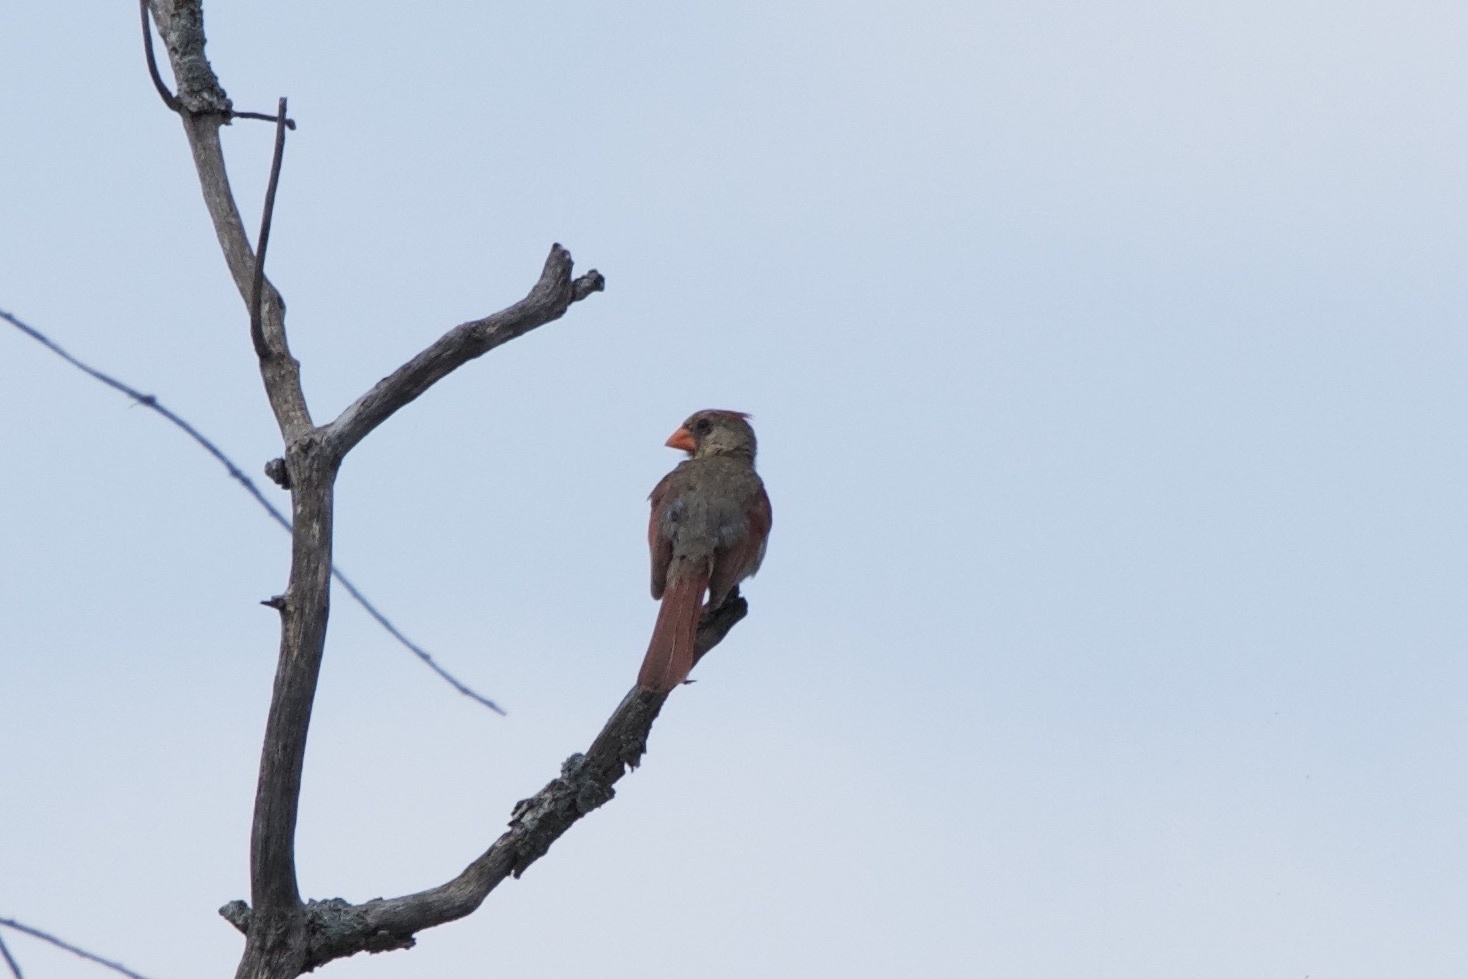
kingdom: Animalia
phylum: Chordata
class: Aves
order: Passeriformes
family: Cardinalidae
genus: Cardinalis
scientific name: Cardinalis cardinalis
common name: Northern cardinal
